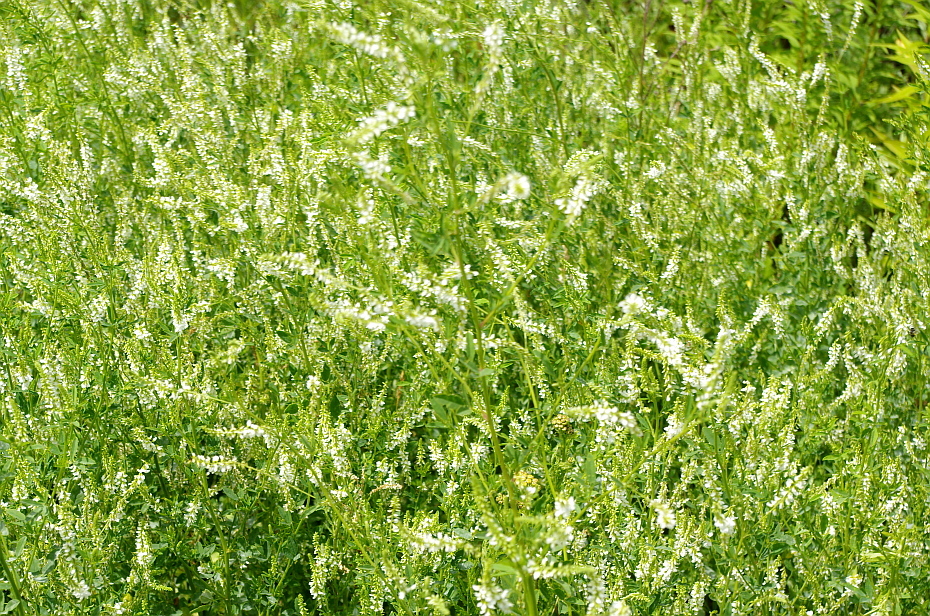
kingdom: Plantae
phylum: Tracheophyta
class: Magnoliopsida
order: Fabales
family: Fabaceae
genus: Melilotus
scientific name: Melilotus albus
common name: White melilot
